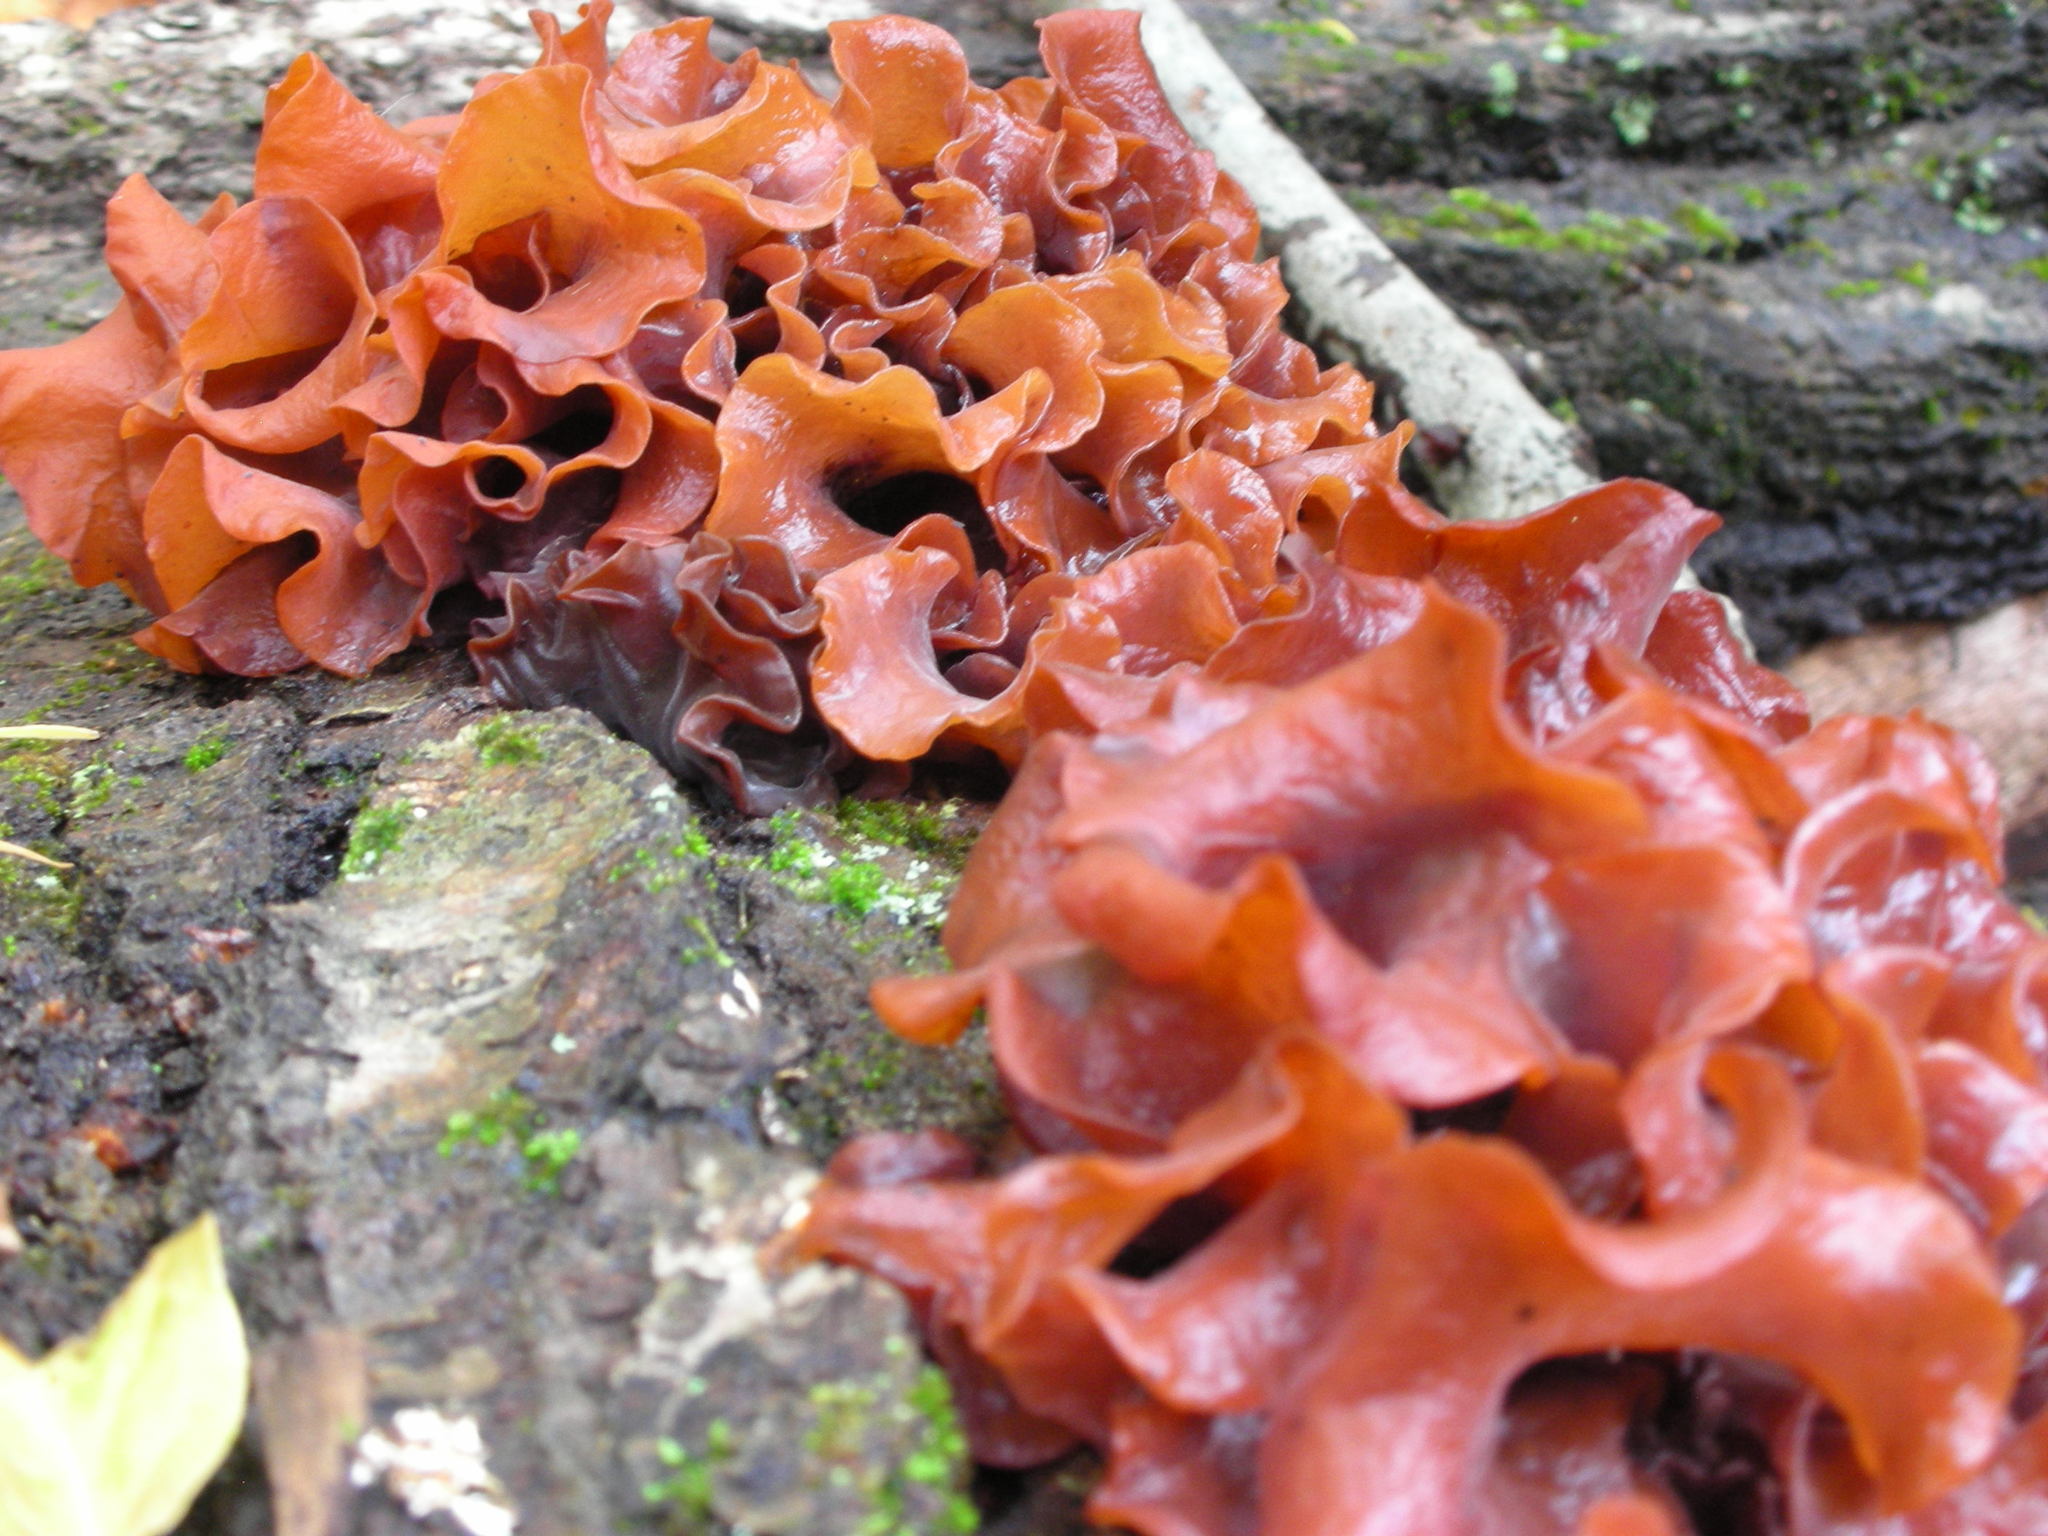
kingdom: Fungi
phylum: Basidiomycota
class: Tremellomycetes
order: Tremellales
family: Tremellaceae
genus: Phaeotremella
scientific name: Phaeotremella frondosa
